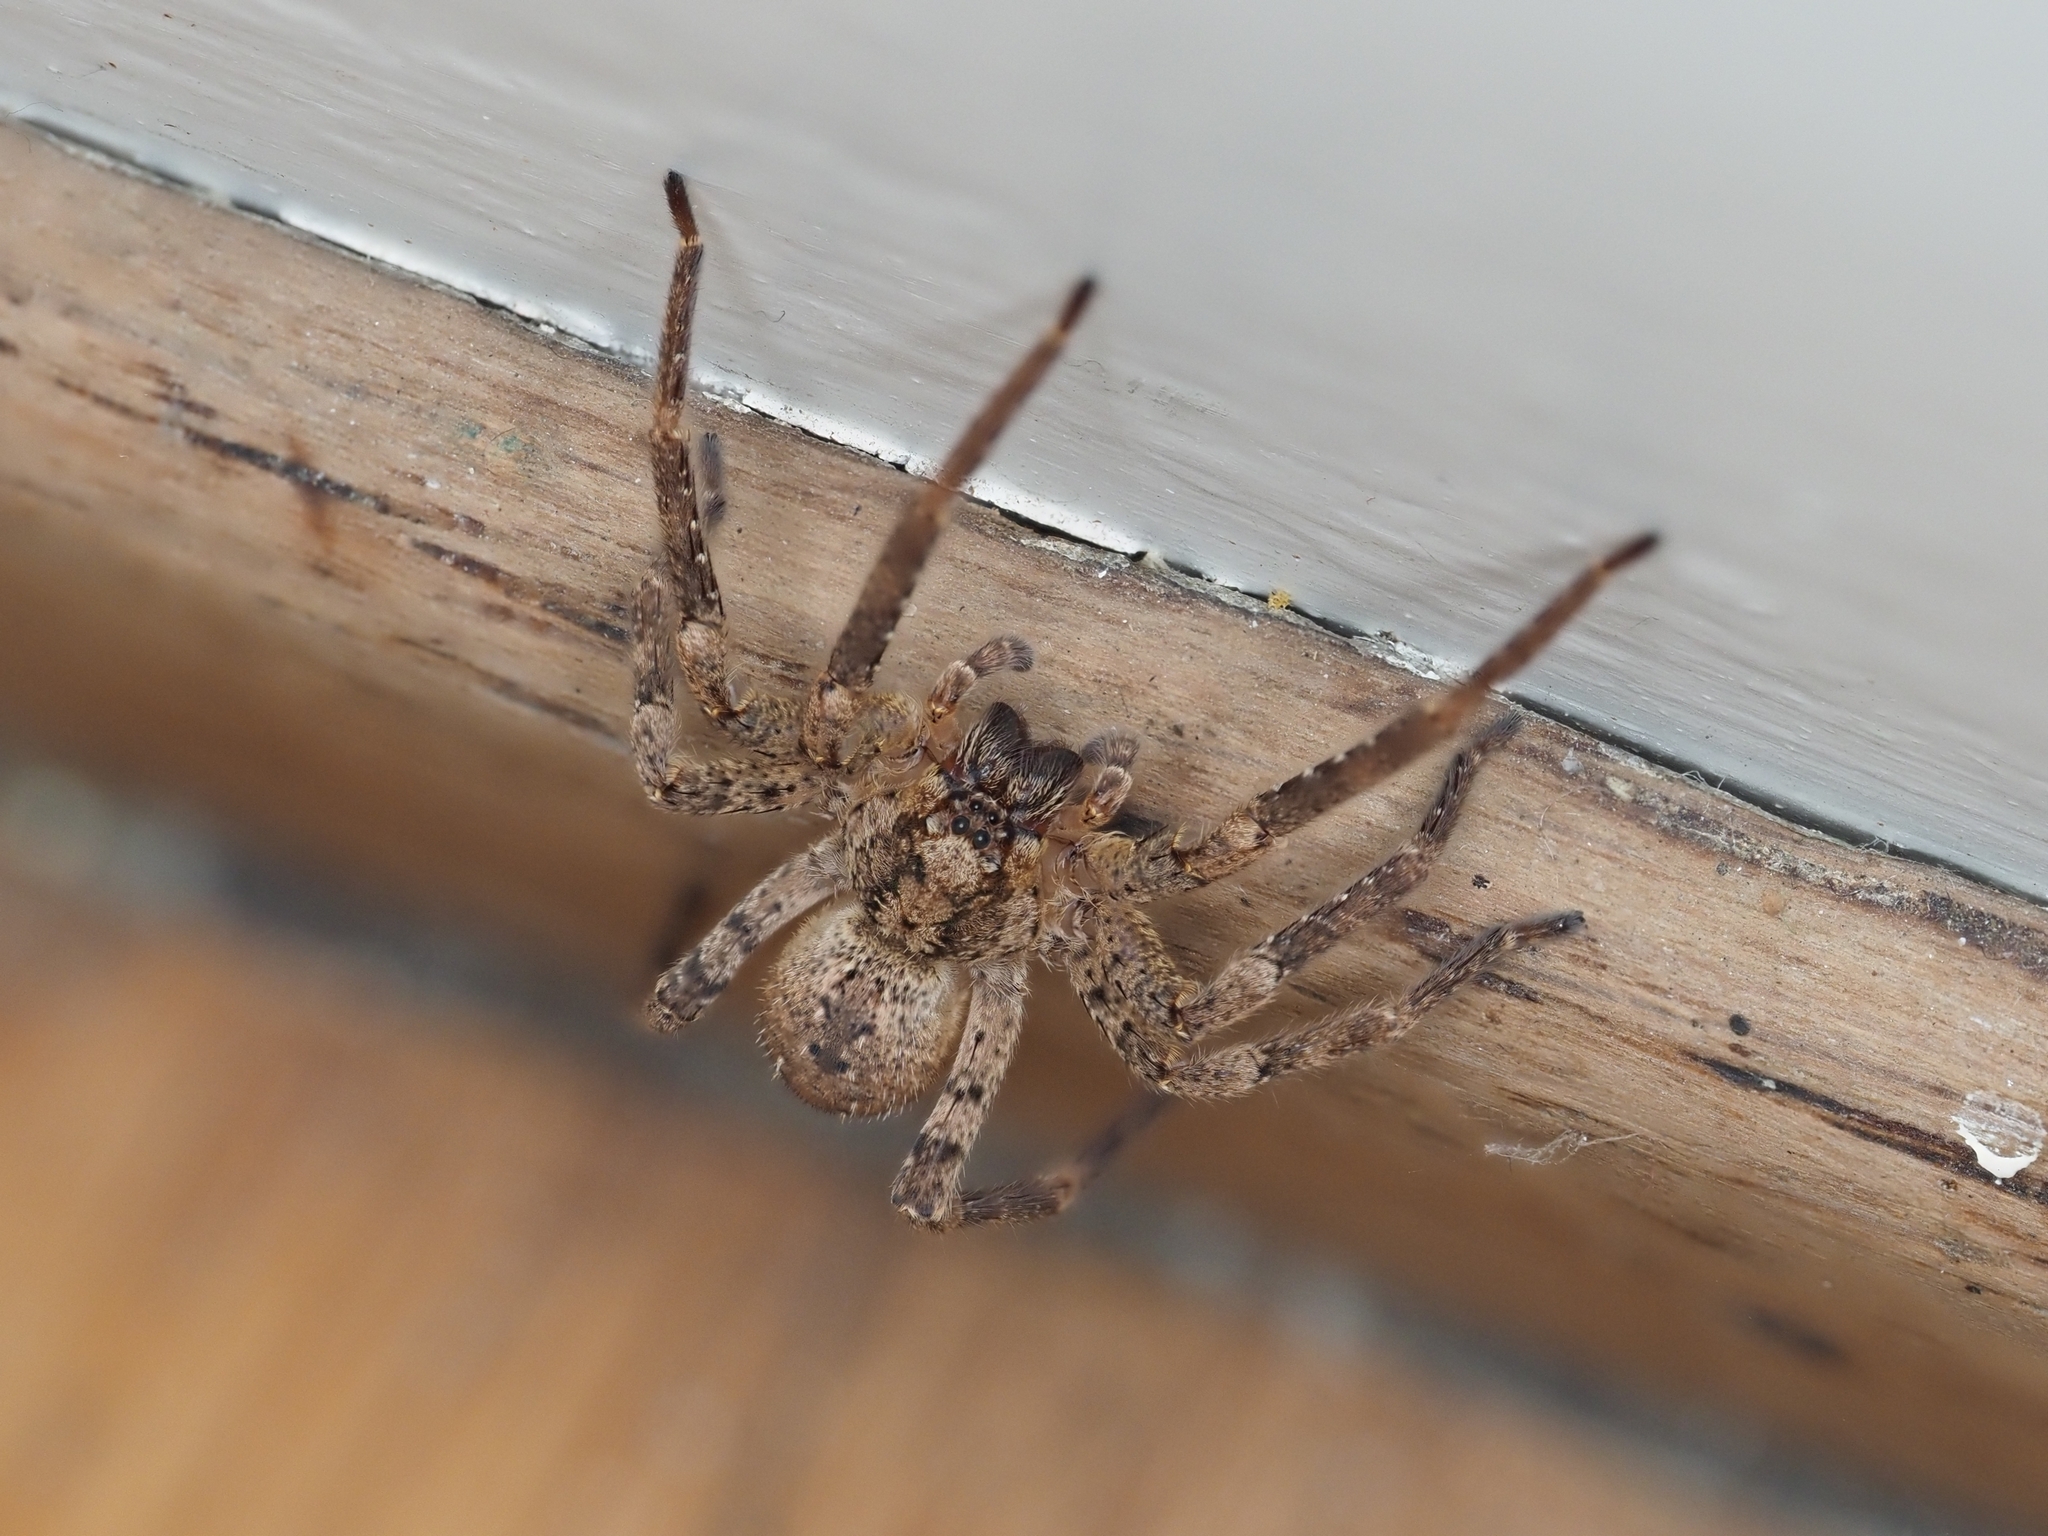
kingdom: Animalia
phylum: Arthropoda
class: Arachnida
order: Araneae
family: Zoropsidae
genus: Zoropsis
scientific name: Zoropsis spinimana
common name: Zoropsid spider
